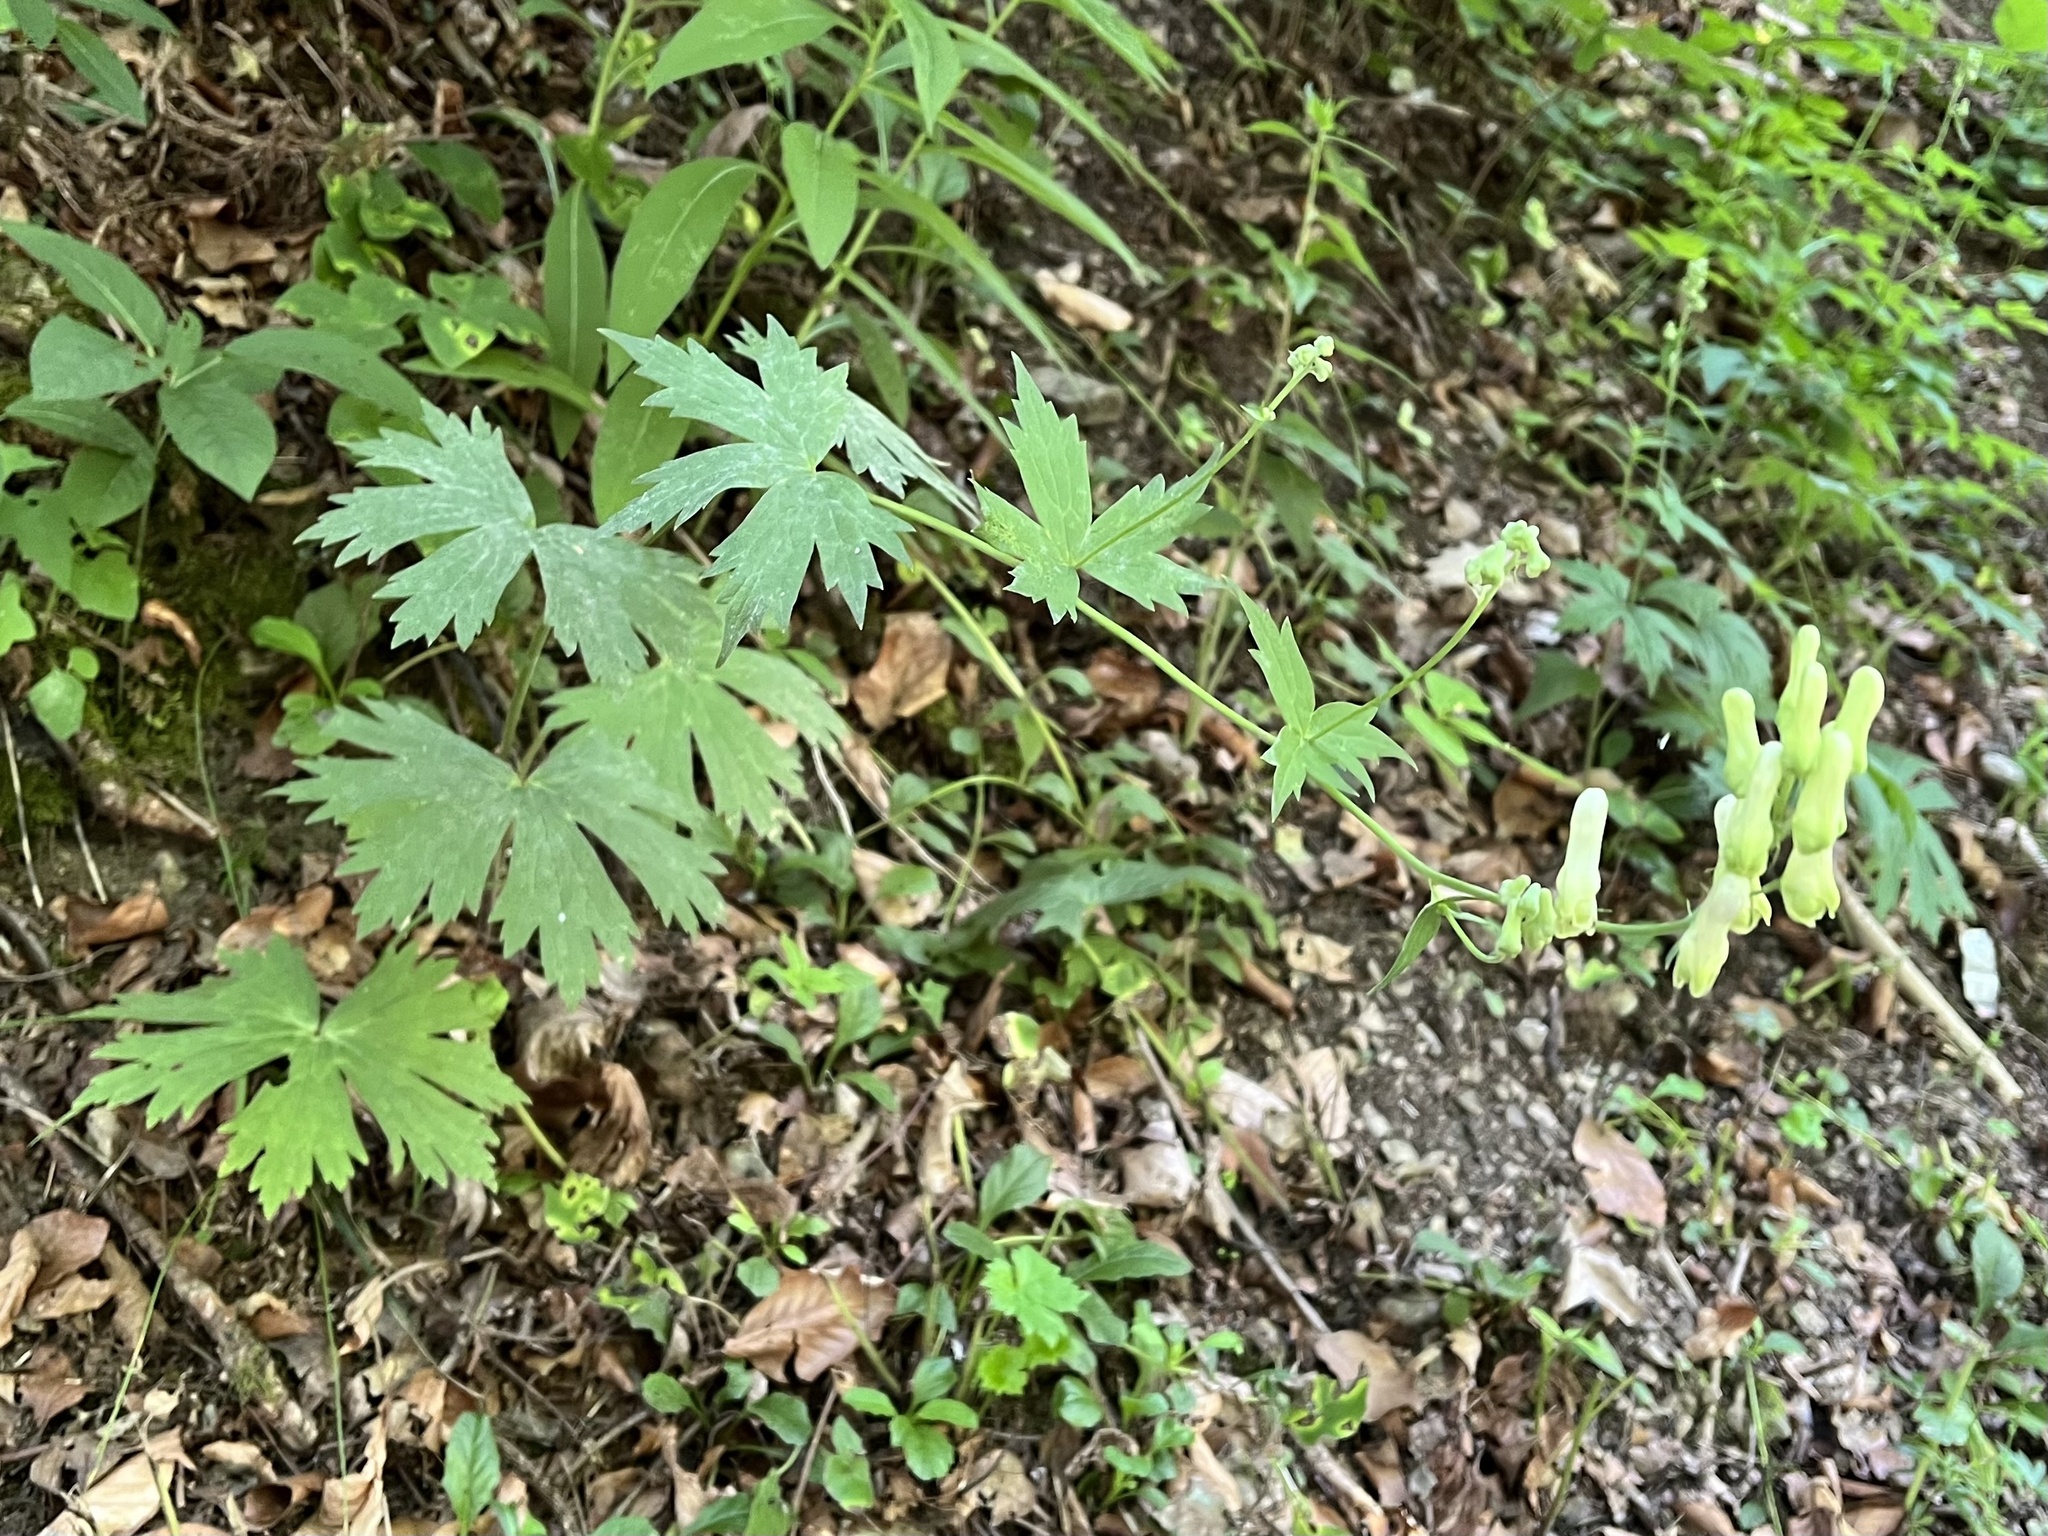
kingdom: Plantae
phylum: Tracheophyta
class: Magnoliopsida
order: Ranunculales
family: Ranunculaceae
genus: Aconitum
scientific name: Aconitum lycoctonum
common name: Wolf's-bane
